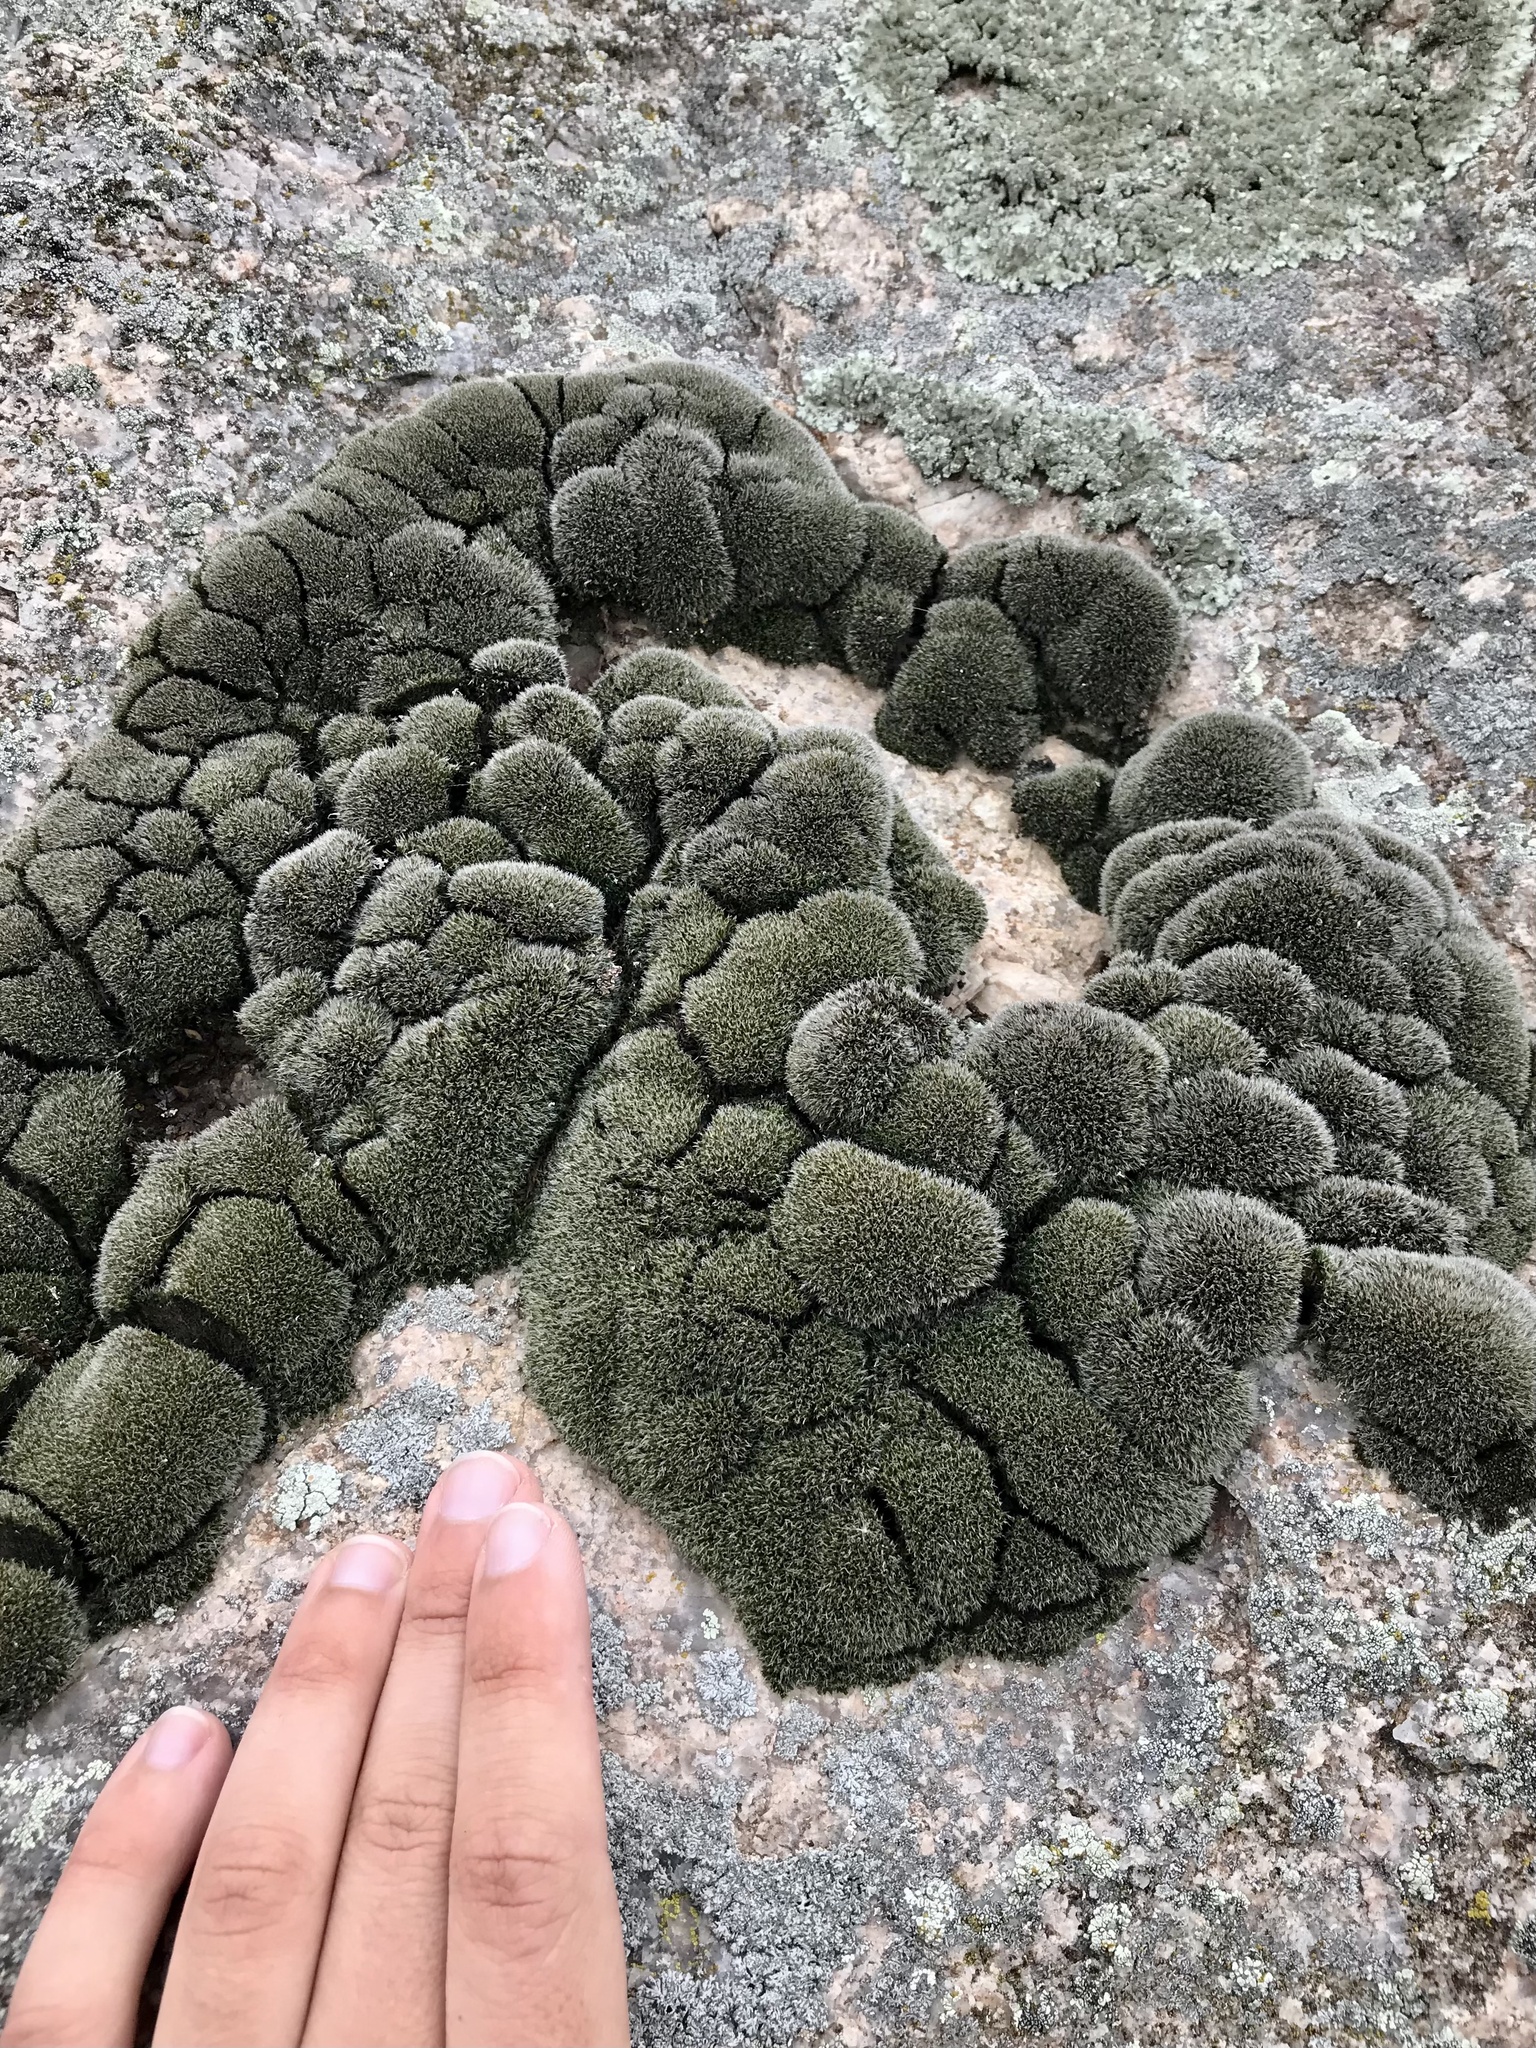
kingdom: Plantae
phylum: Bryophyta
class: Bryopsida
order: Grimmiales
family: Grimmiaceae
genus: Grimmia
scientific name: Grimmia laevigata
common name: Hoary grimmia
